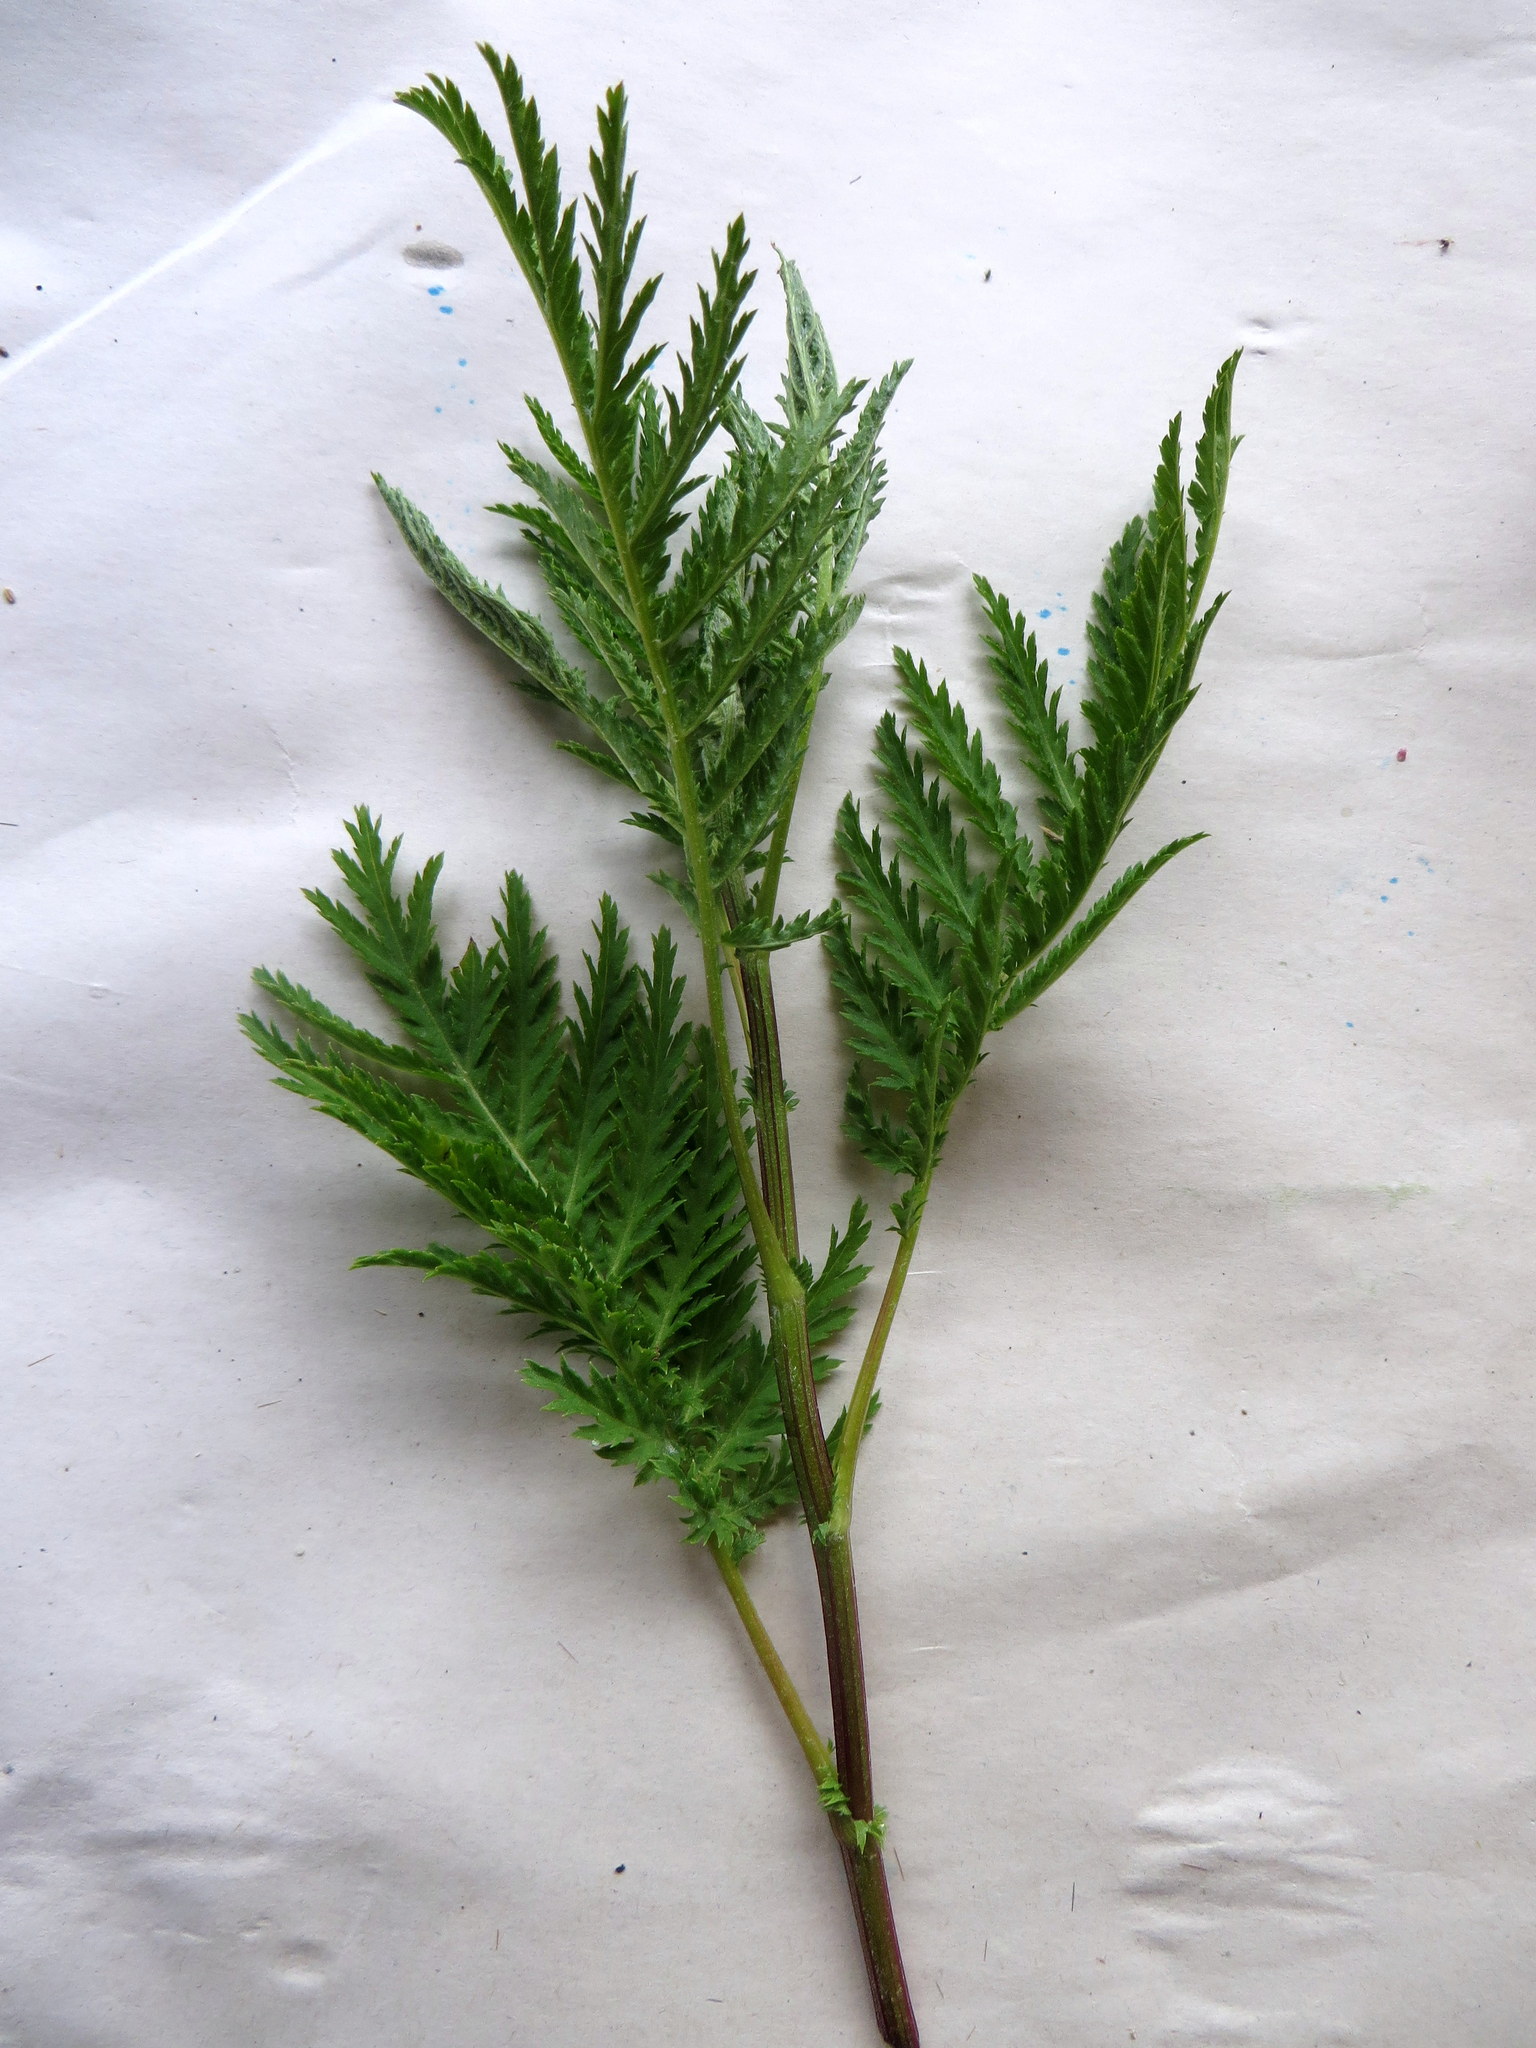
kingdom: Plantae
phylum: Tracheophyta
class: Magnoliopsida
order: Asterales
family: Asteraceae
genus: Tanacetum
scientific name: Tanacetum vulgare
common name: Common tansy
